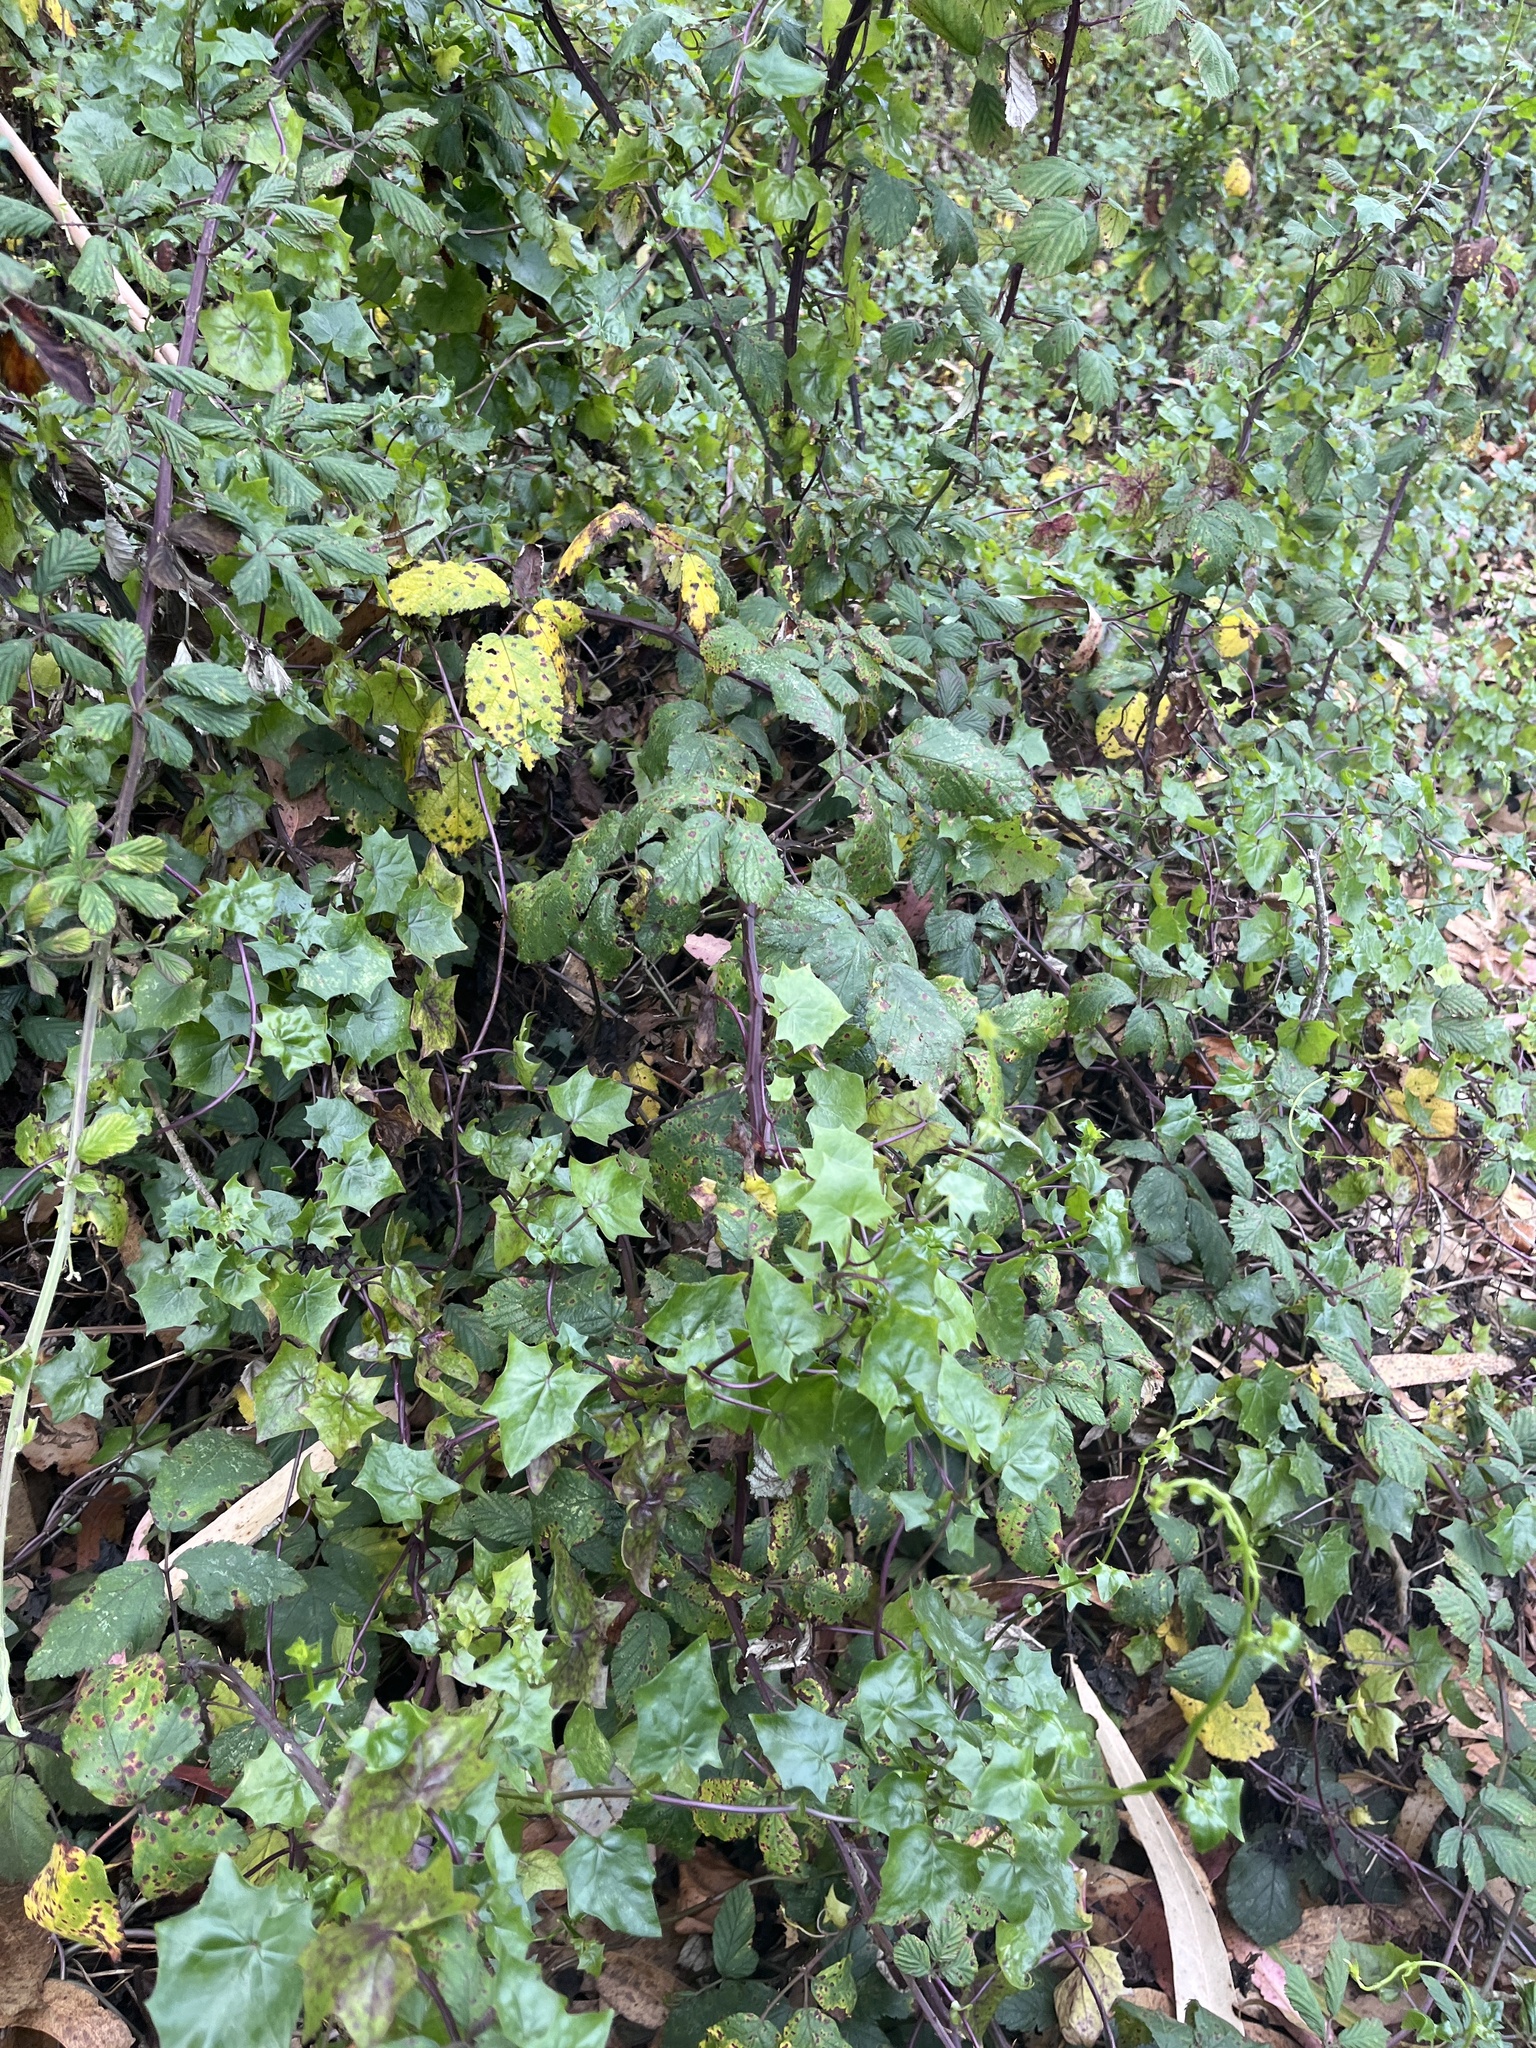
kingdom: Plantae
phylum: Tracheophyta
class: Magnoliopsida
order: Asterales
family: Asteraceae
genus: Delairea
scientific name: Delairea odorata
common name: Cape-ivy
